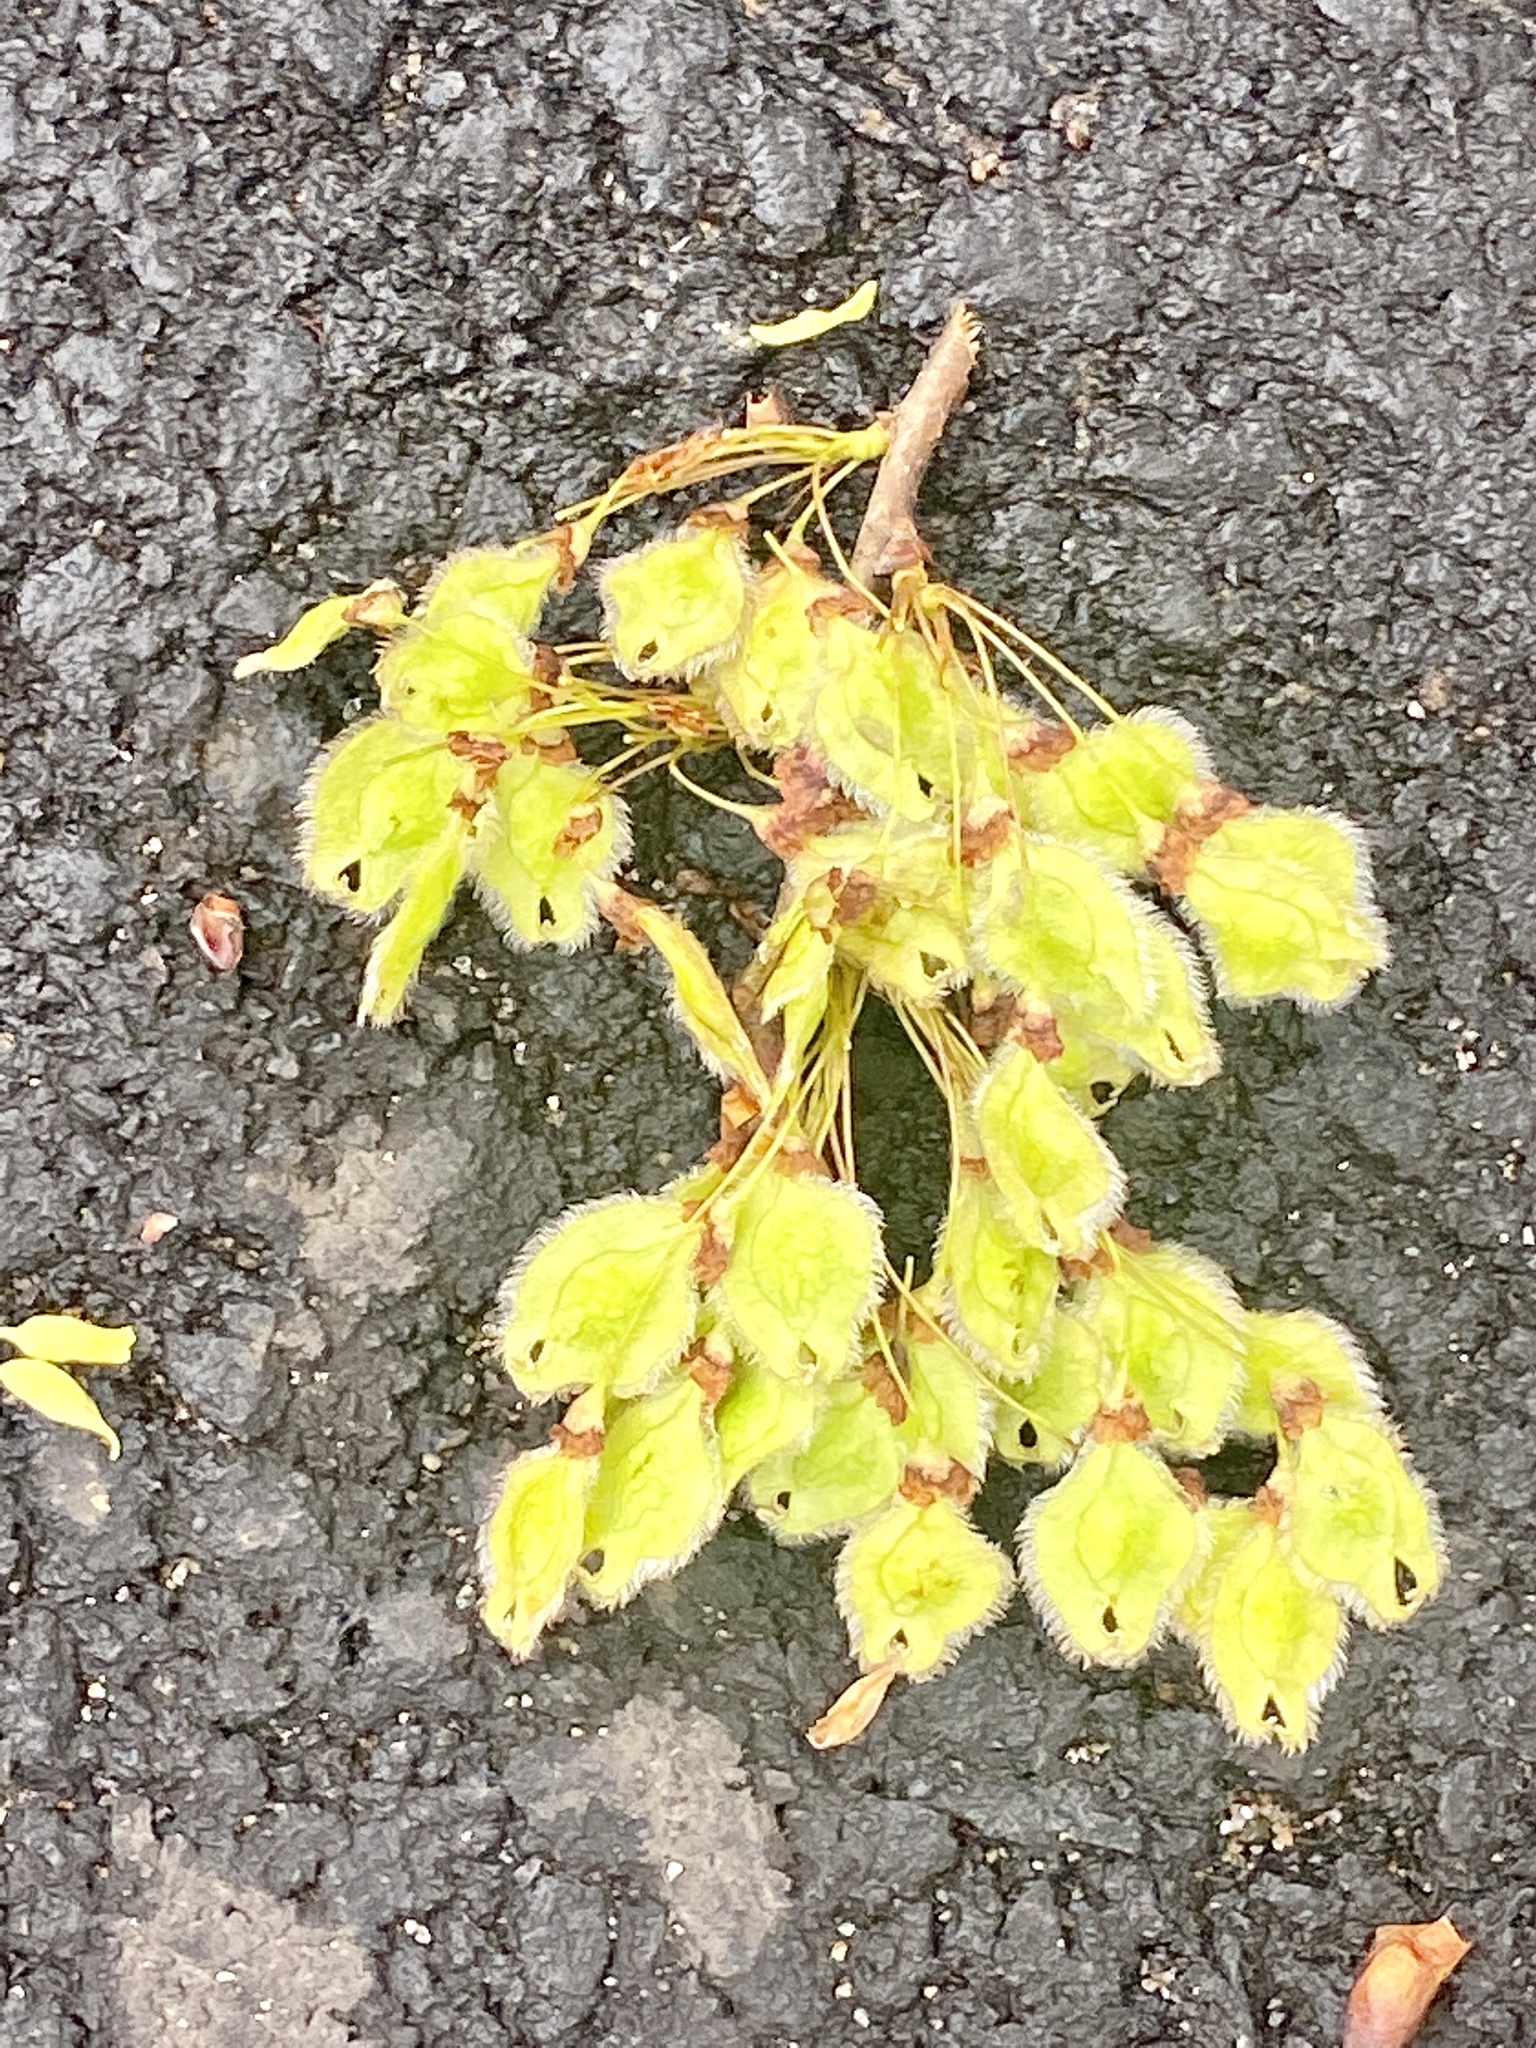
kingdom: Plantae
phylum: Tracheophyta
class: Magnoliopsida
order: Rosales
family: Ulmaceae
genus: Ulmus
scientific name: Ulmus americana
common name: American elm
